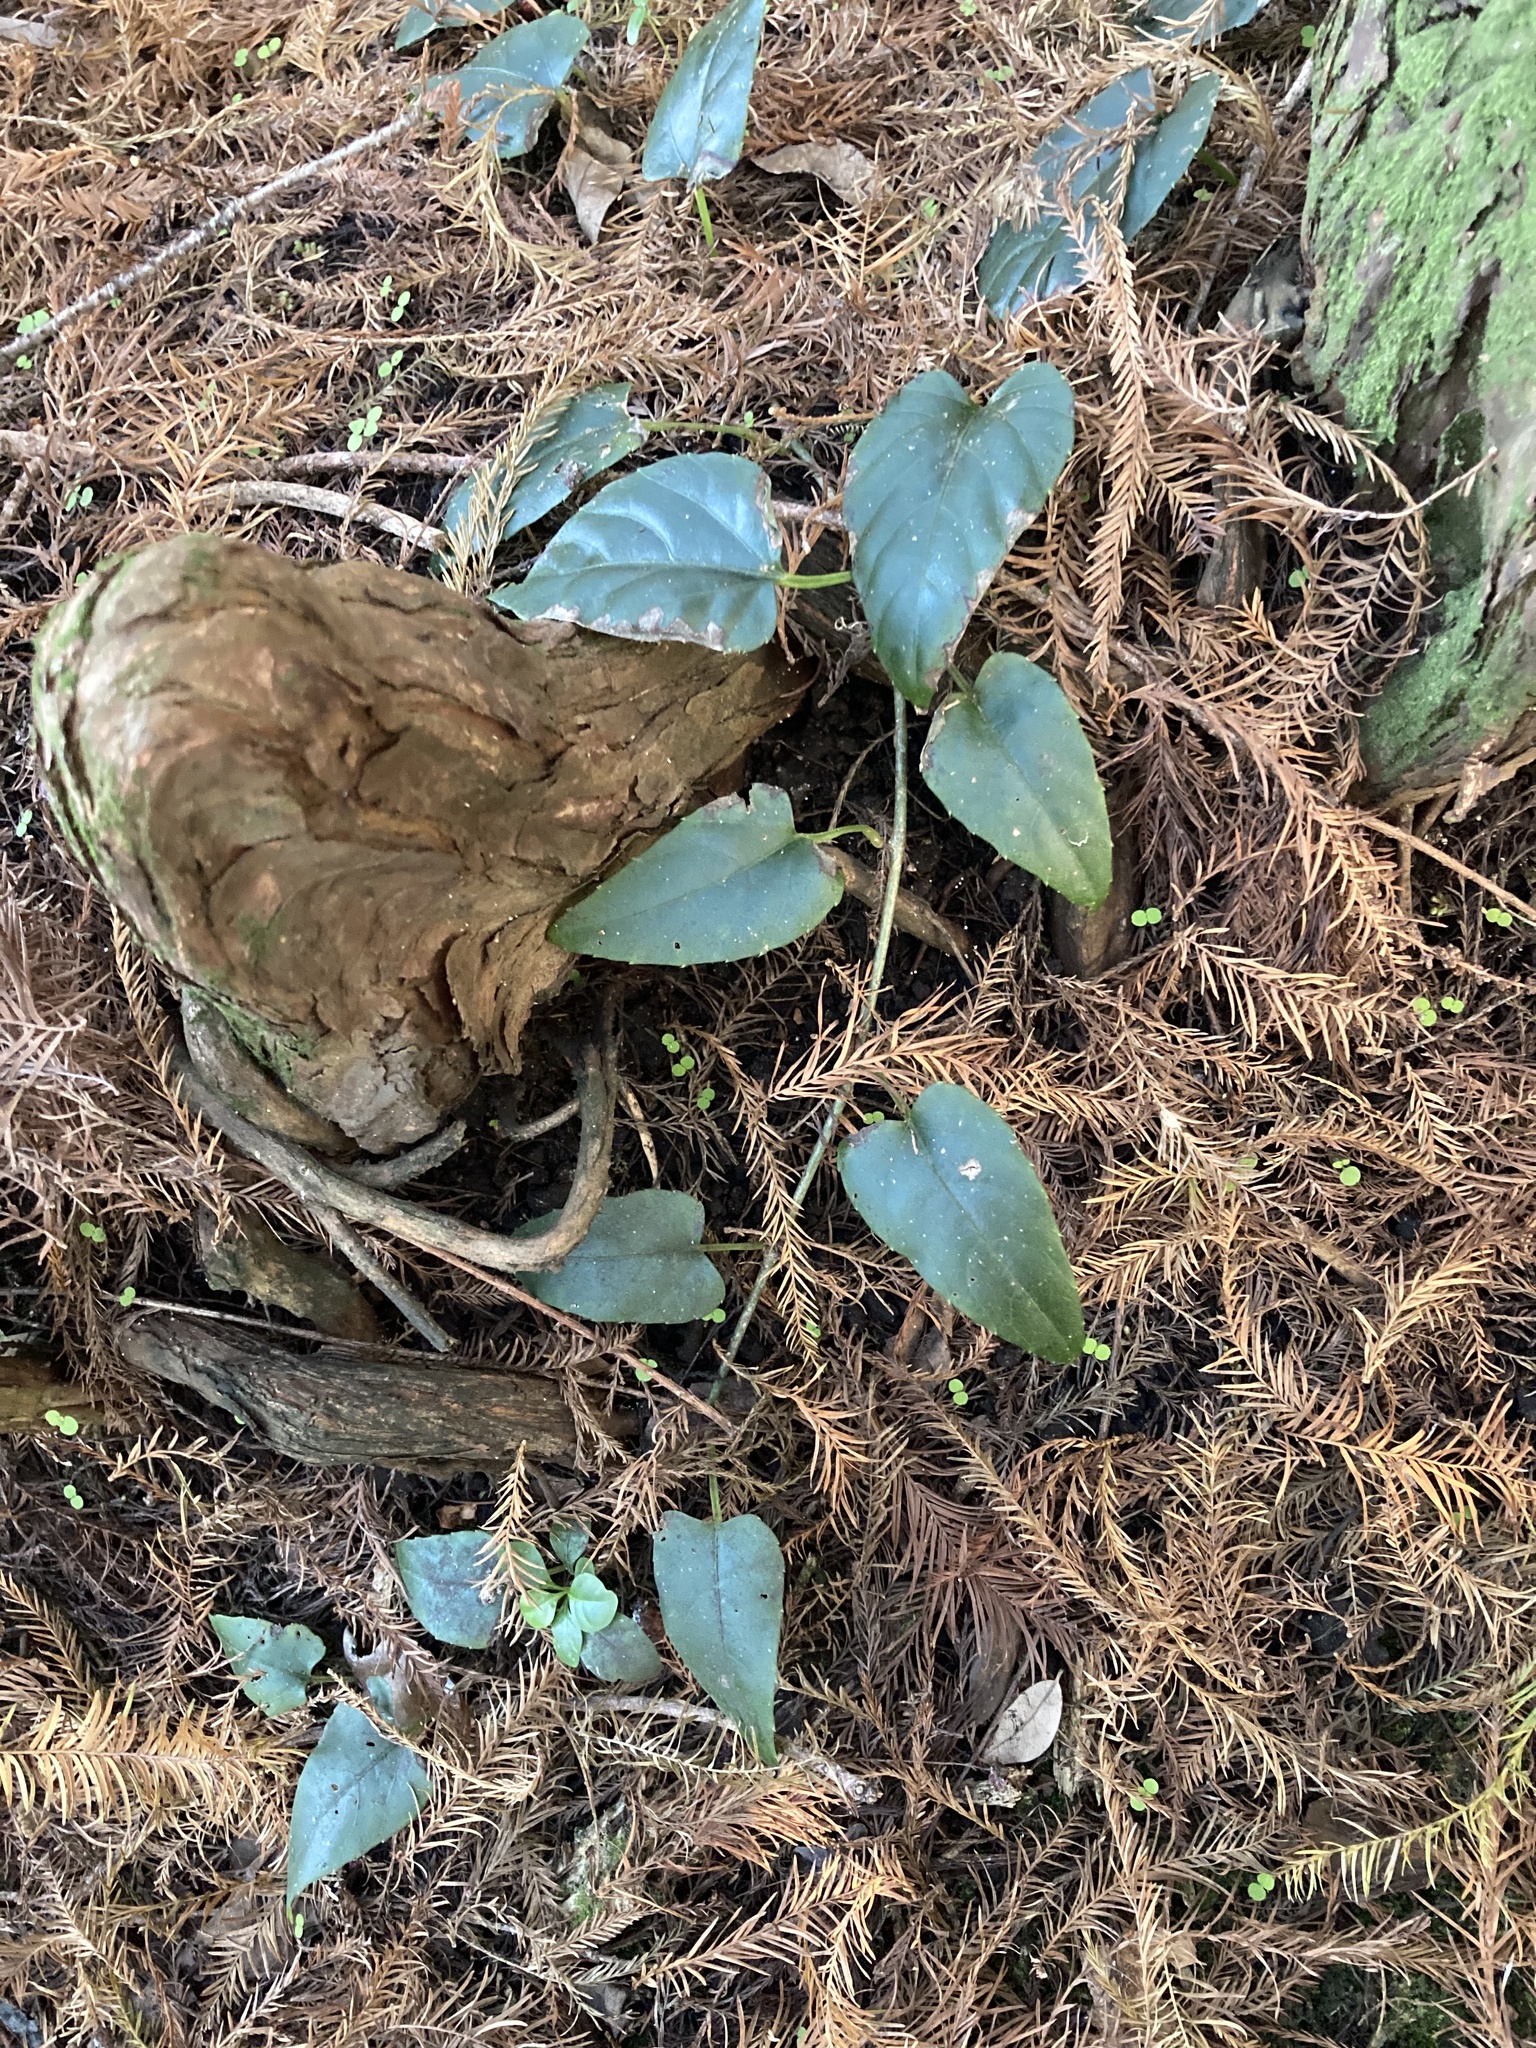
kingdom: Plantae
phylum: Tracheophyta
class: Magnoliopsida
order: Vitales
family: Vitaceae
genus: Cissus
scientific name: Cissus verticillata
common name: Princess vine
